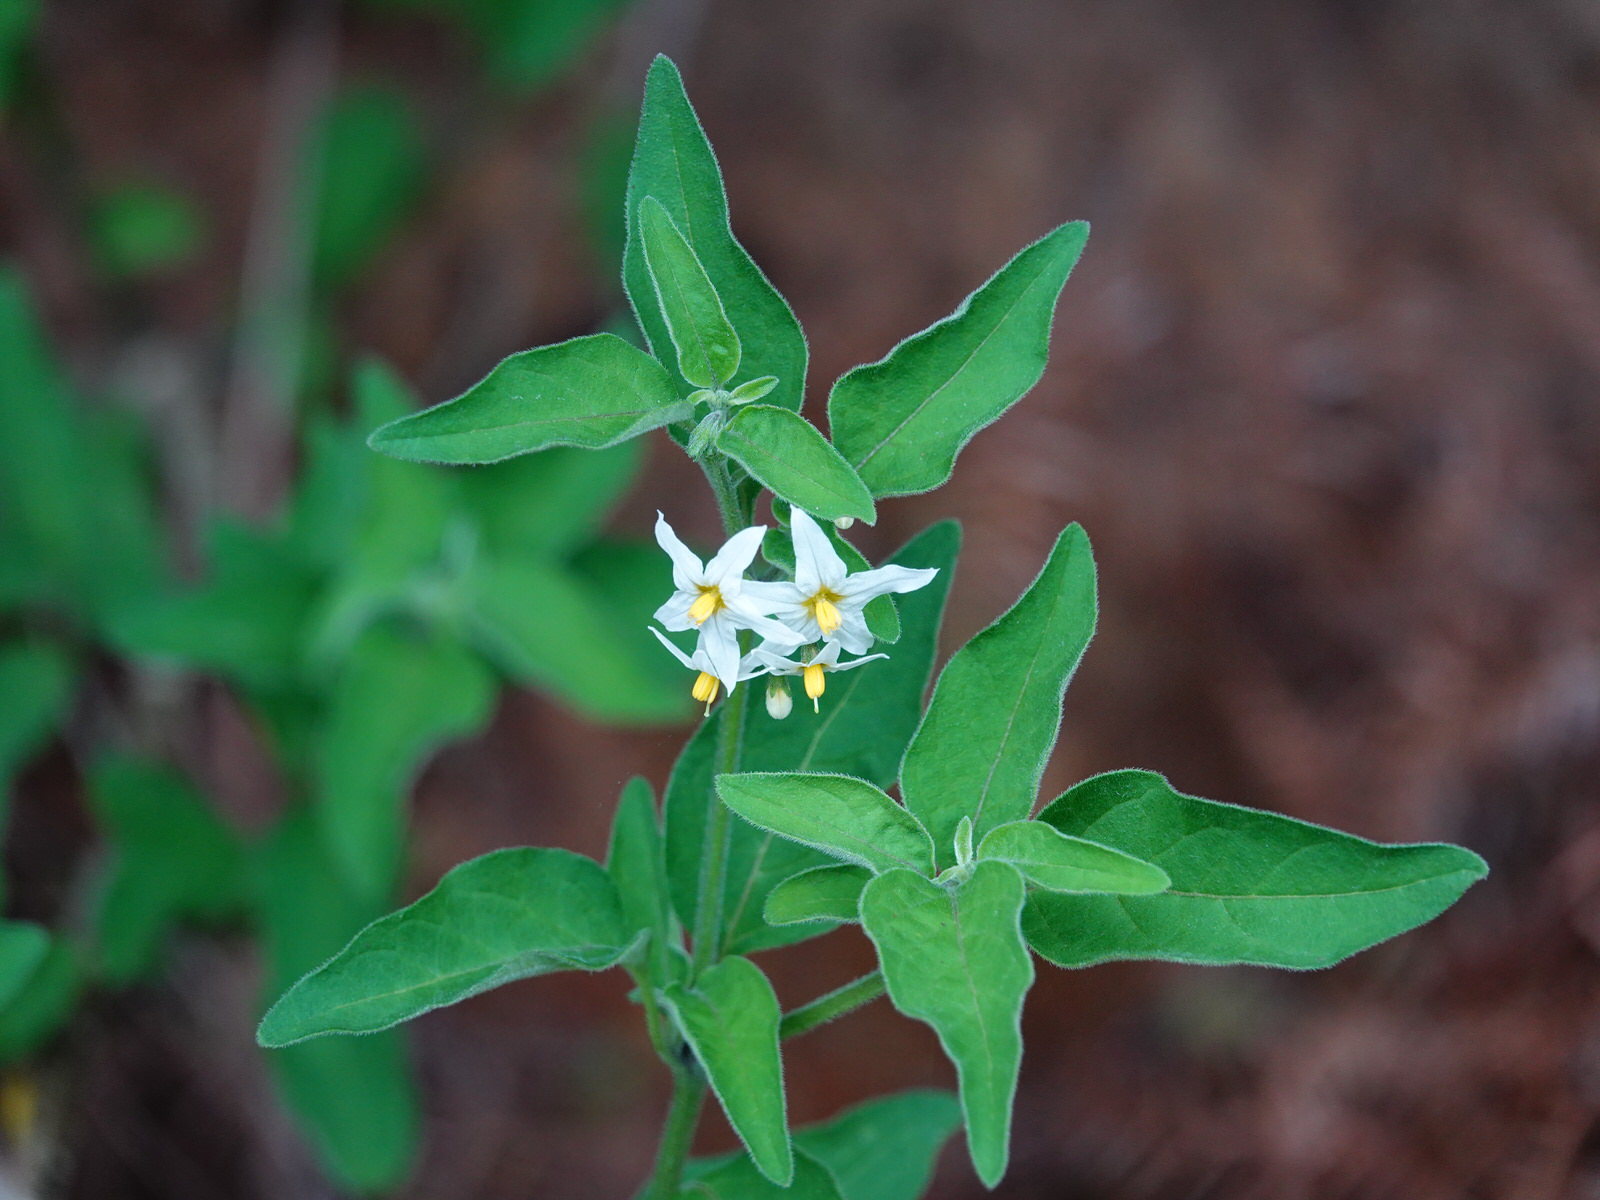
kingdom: Plantae
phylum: Tracheophyta
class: Magnoliopsida
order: Solanales
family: Solanaceae
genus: Solanum
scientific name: Solanum chenopodioides
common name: Tall nightshade
